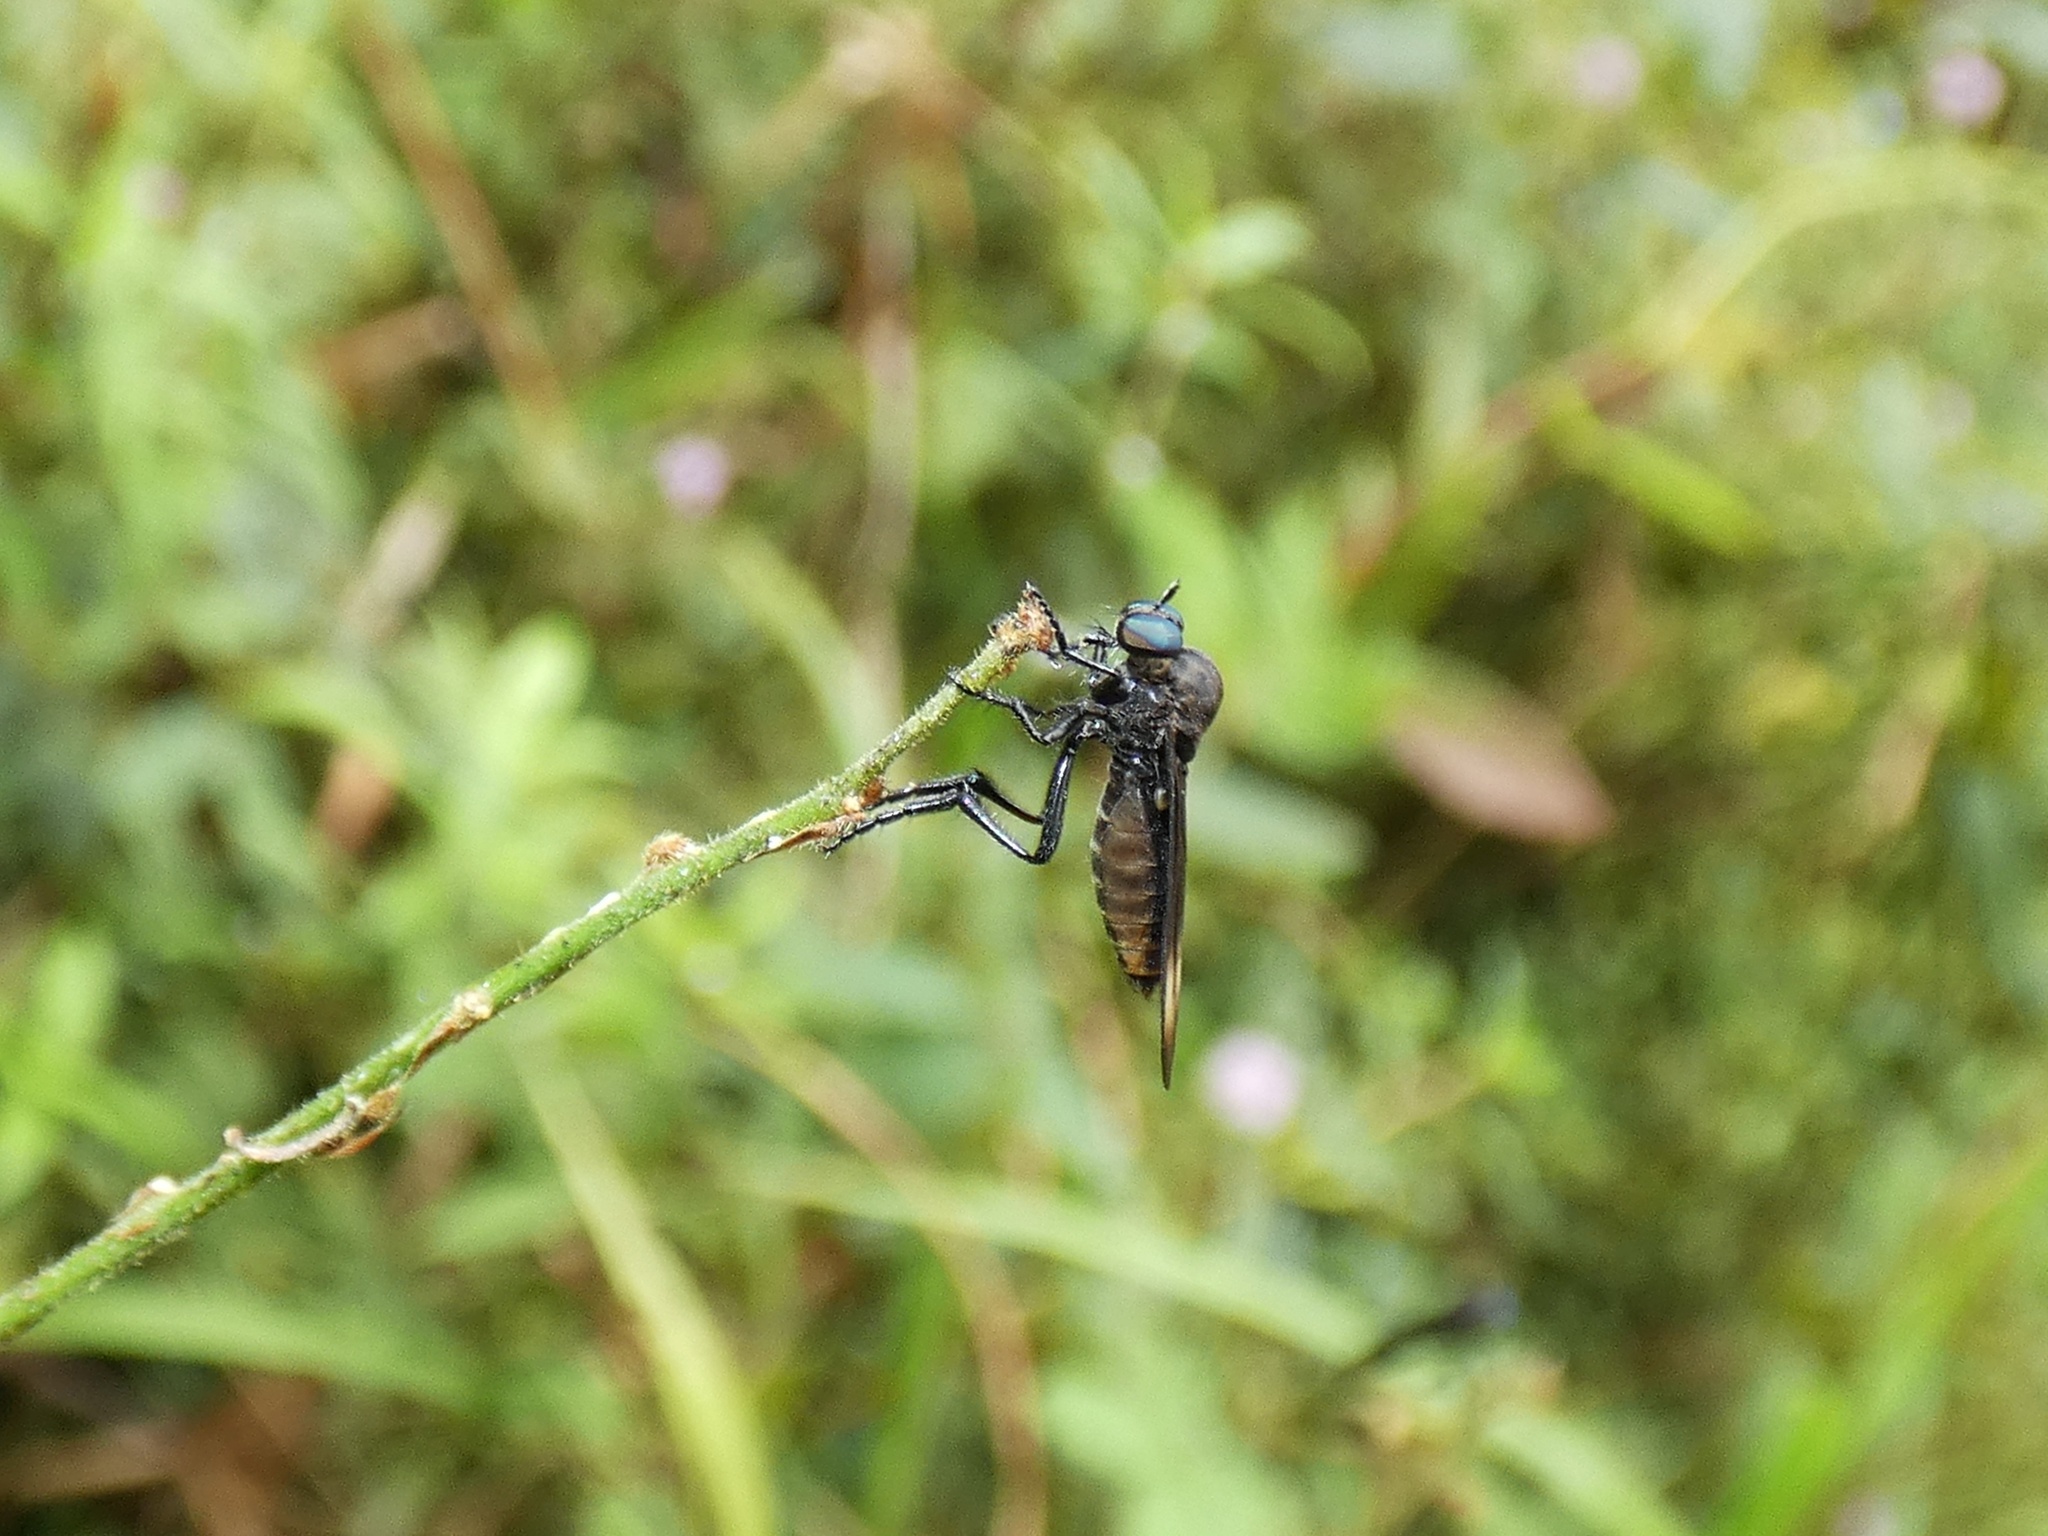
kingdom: Animalia
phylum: Arthropoda
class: Insecta
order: Diptera
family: Asilidae
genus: Holcocephala
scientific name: Holcocephala analis
